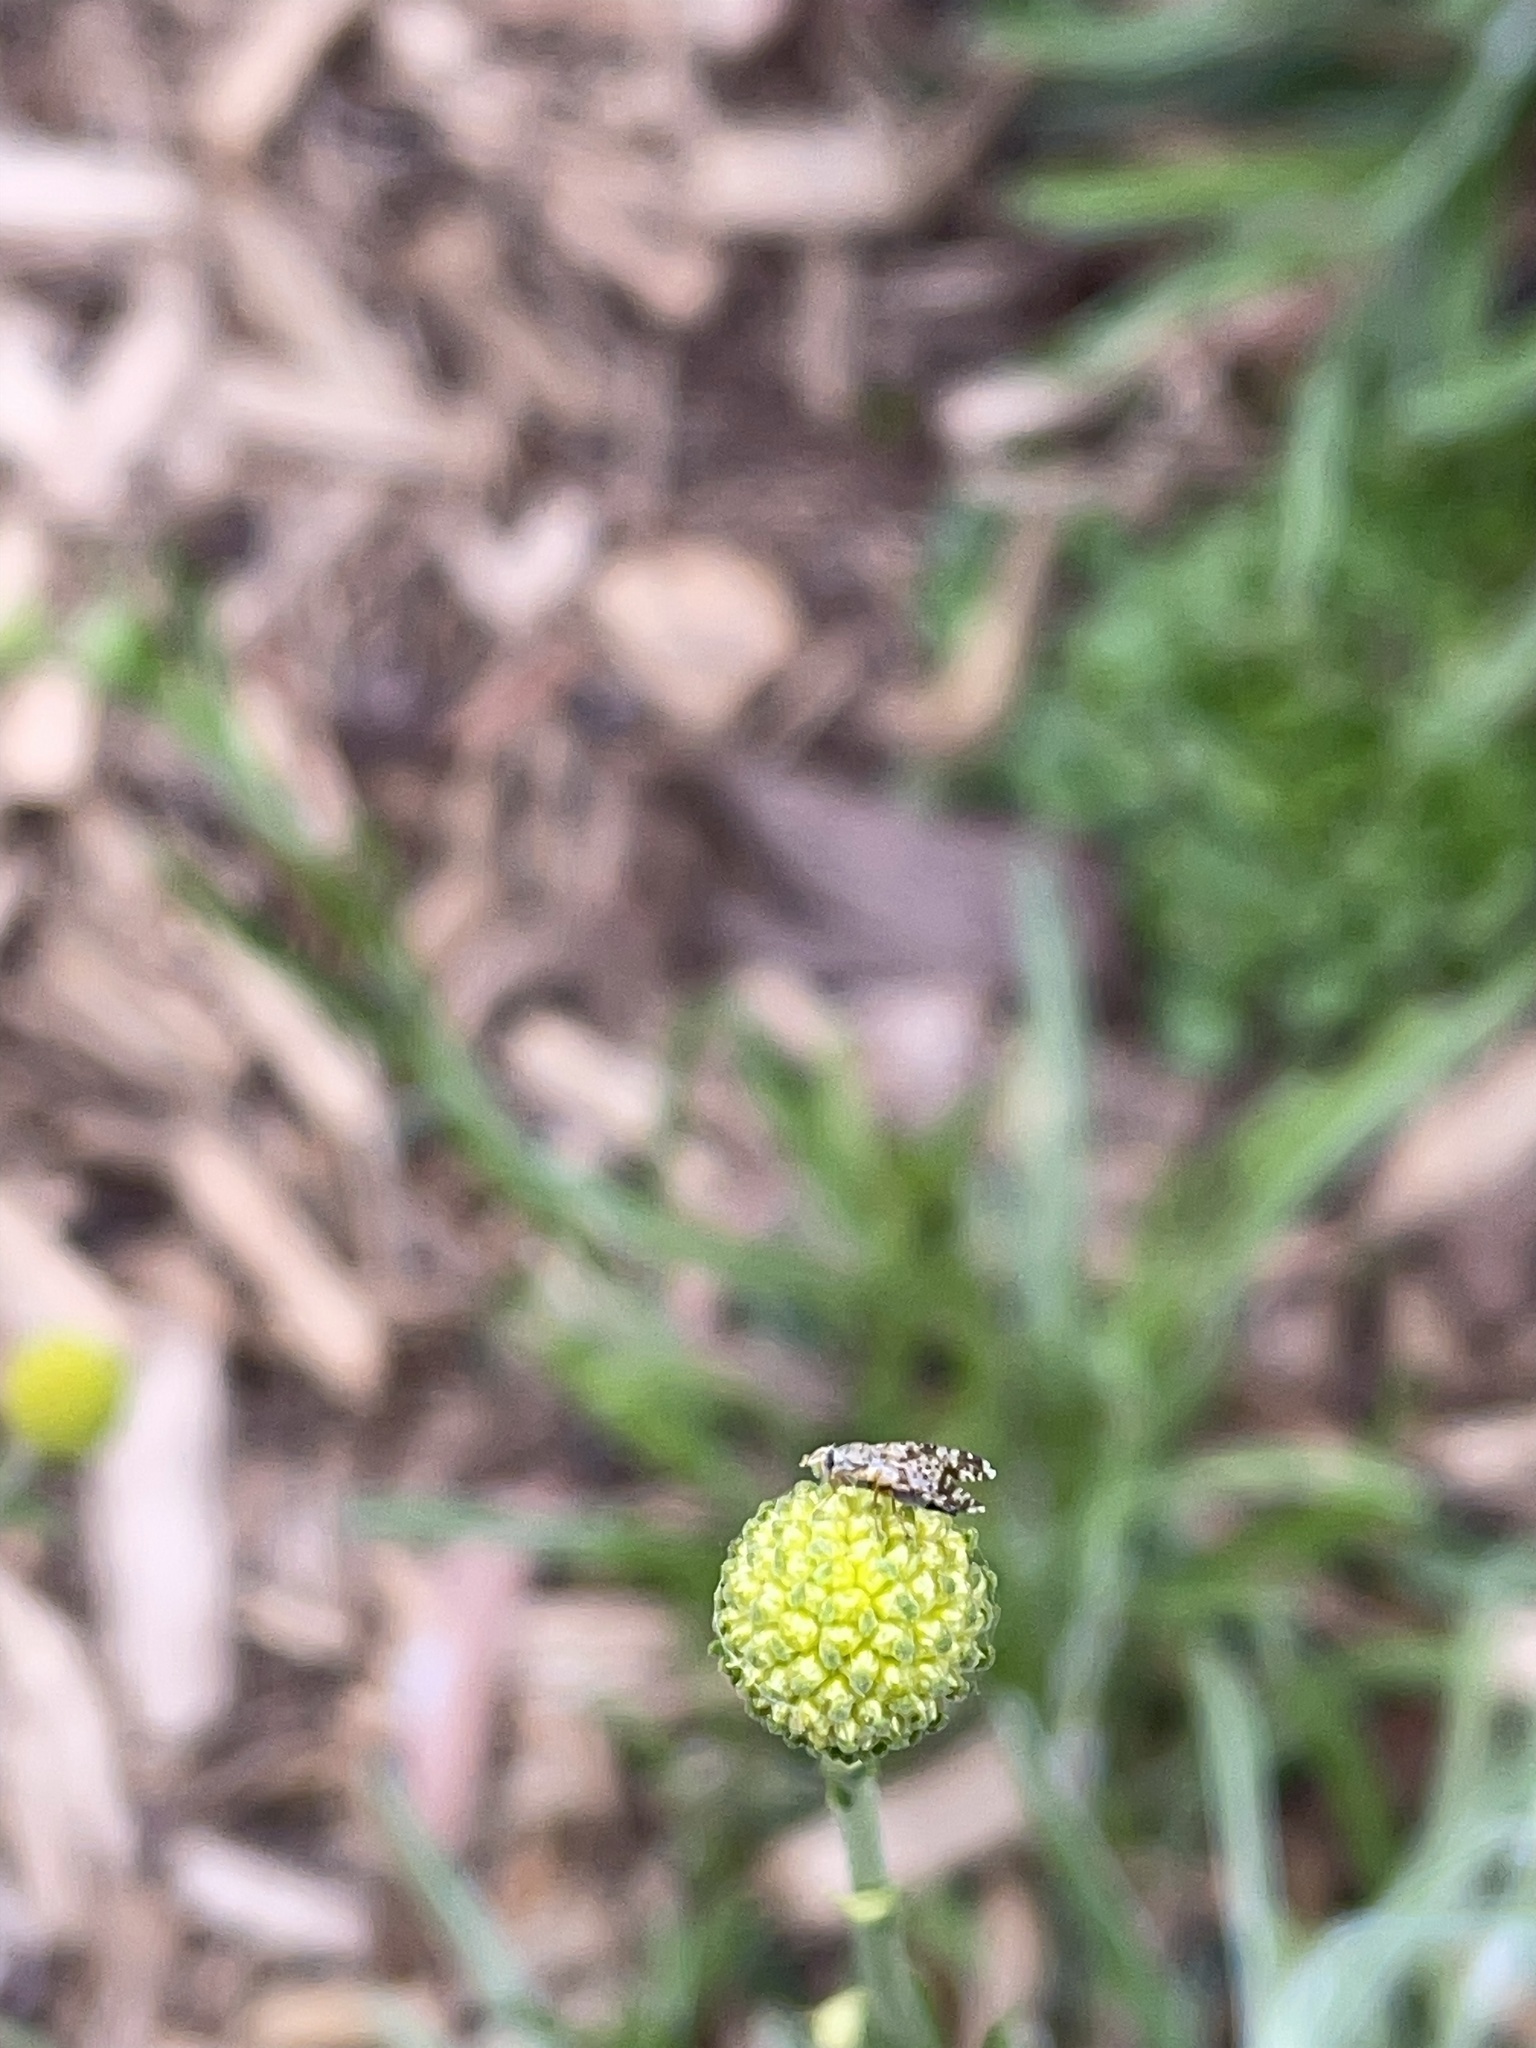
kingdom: Animalia
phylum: Arthropoda
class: Insecta
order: Diptera
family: Tephritidae
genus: Austrotephritis
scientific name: Austrotephritis
